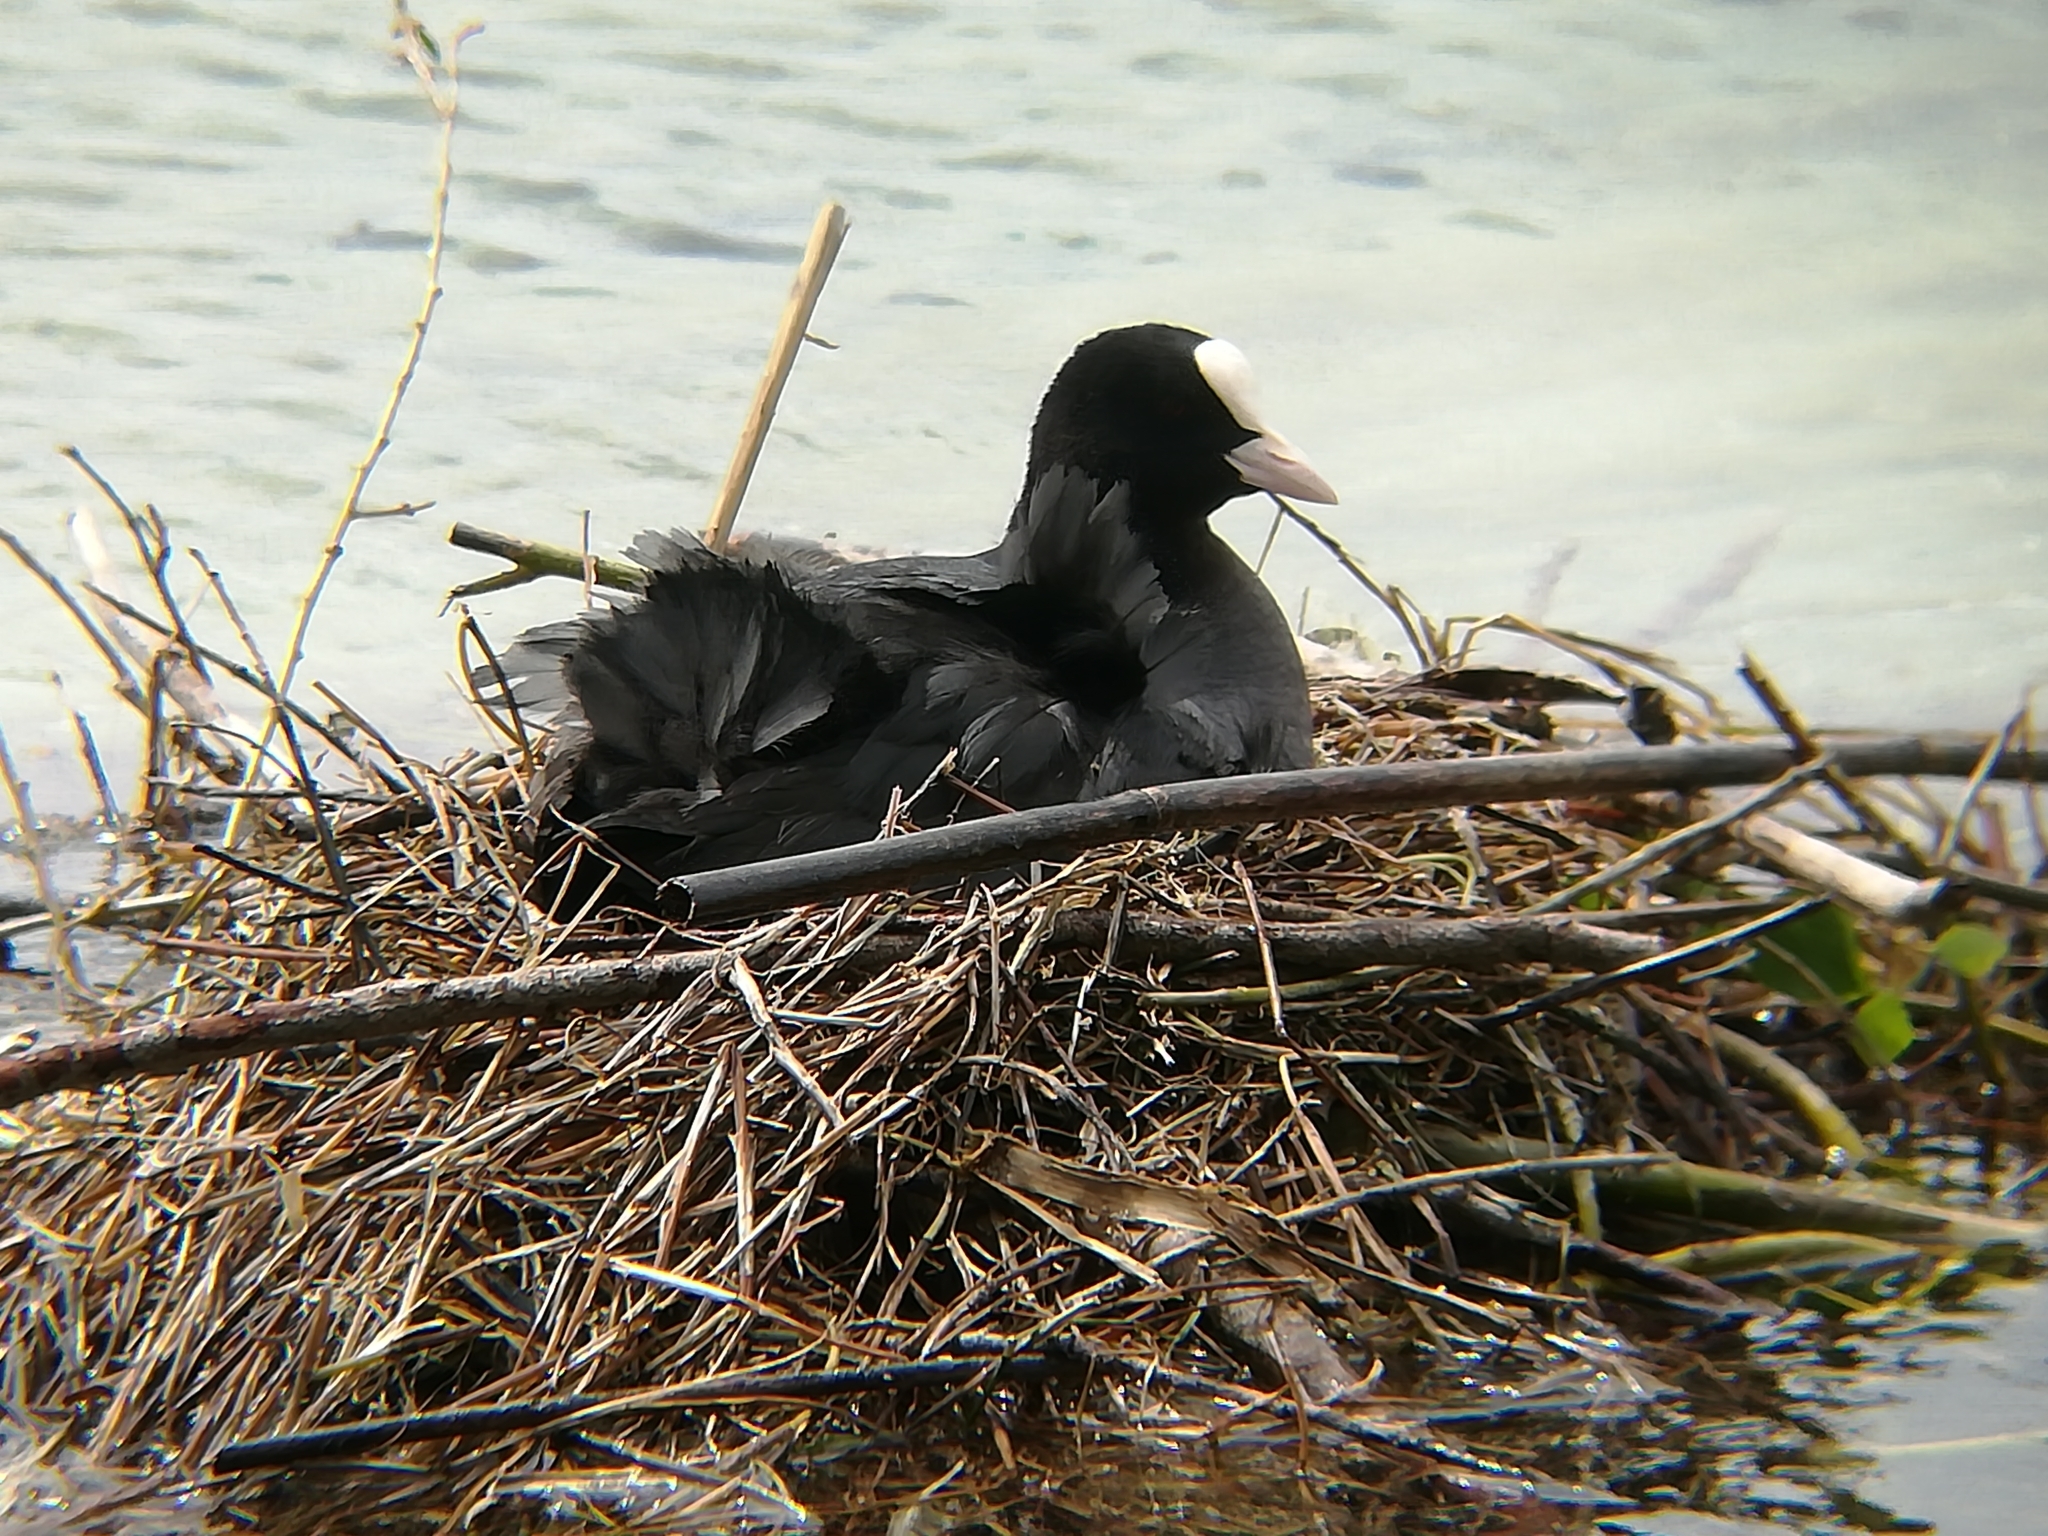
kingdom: Animalia
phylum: Chordata
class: Aves
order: Gruiformes
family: Rallidae
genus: Fulica
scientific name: Fulica atra
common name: Eurasian coot
